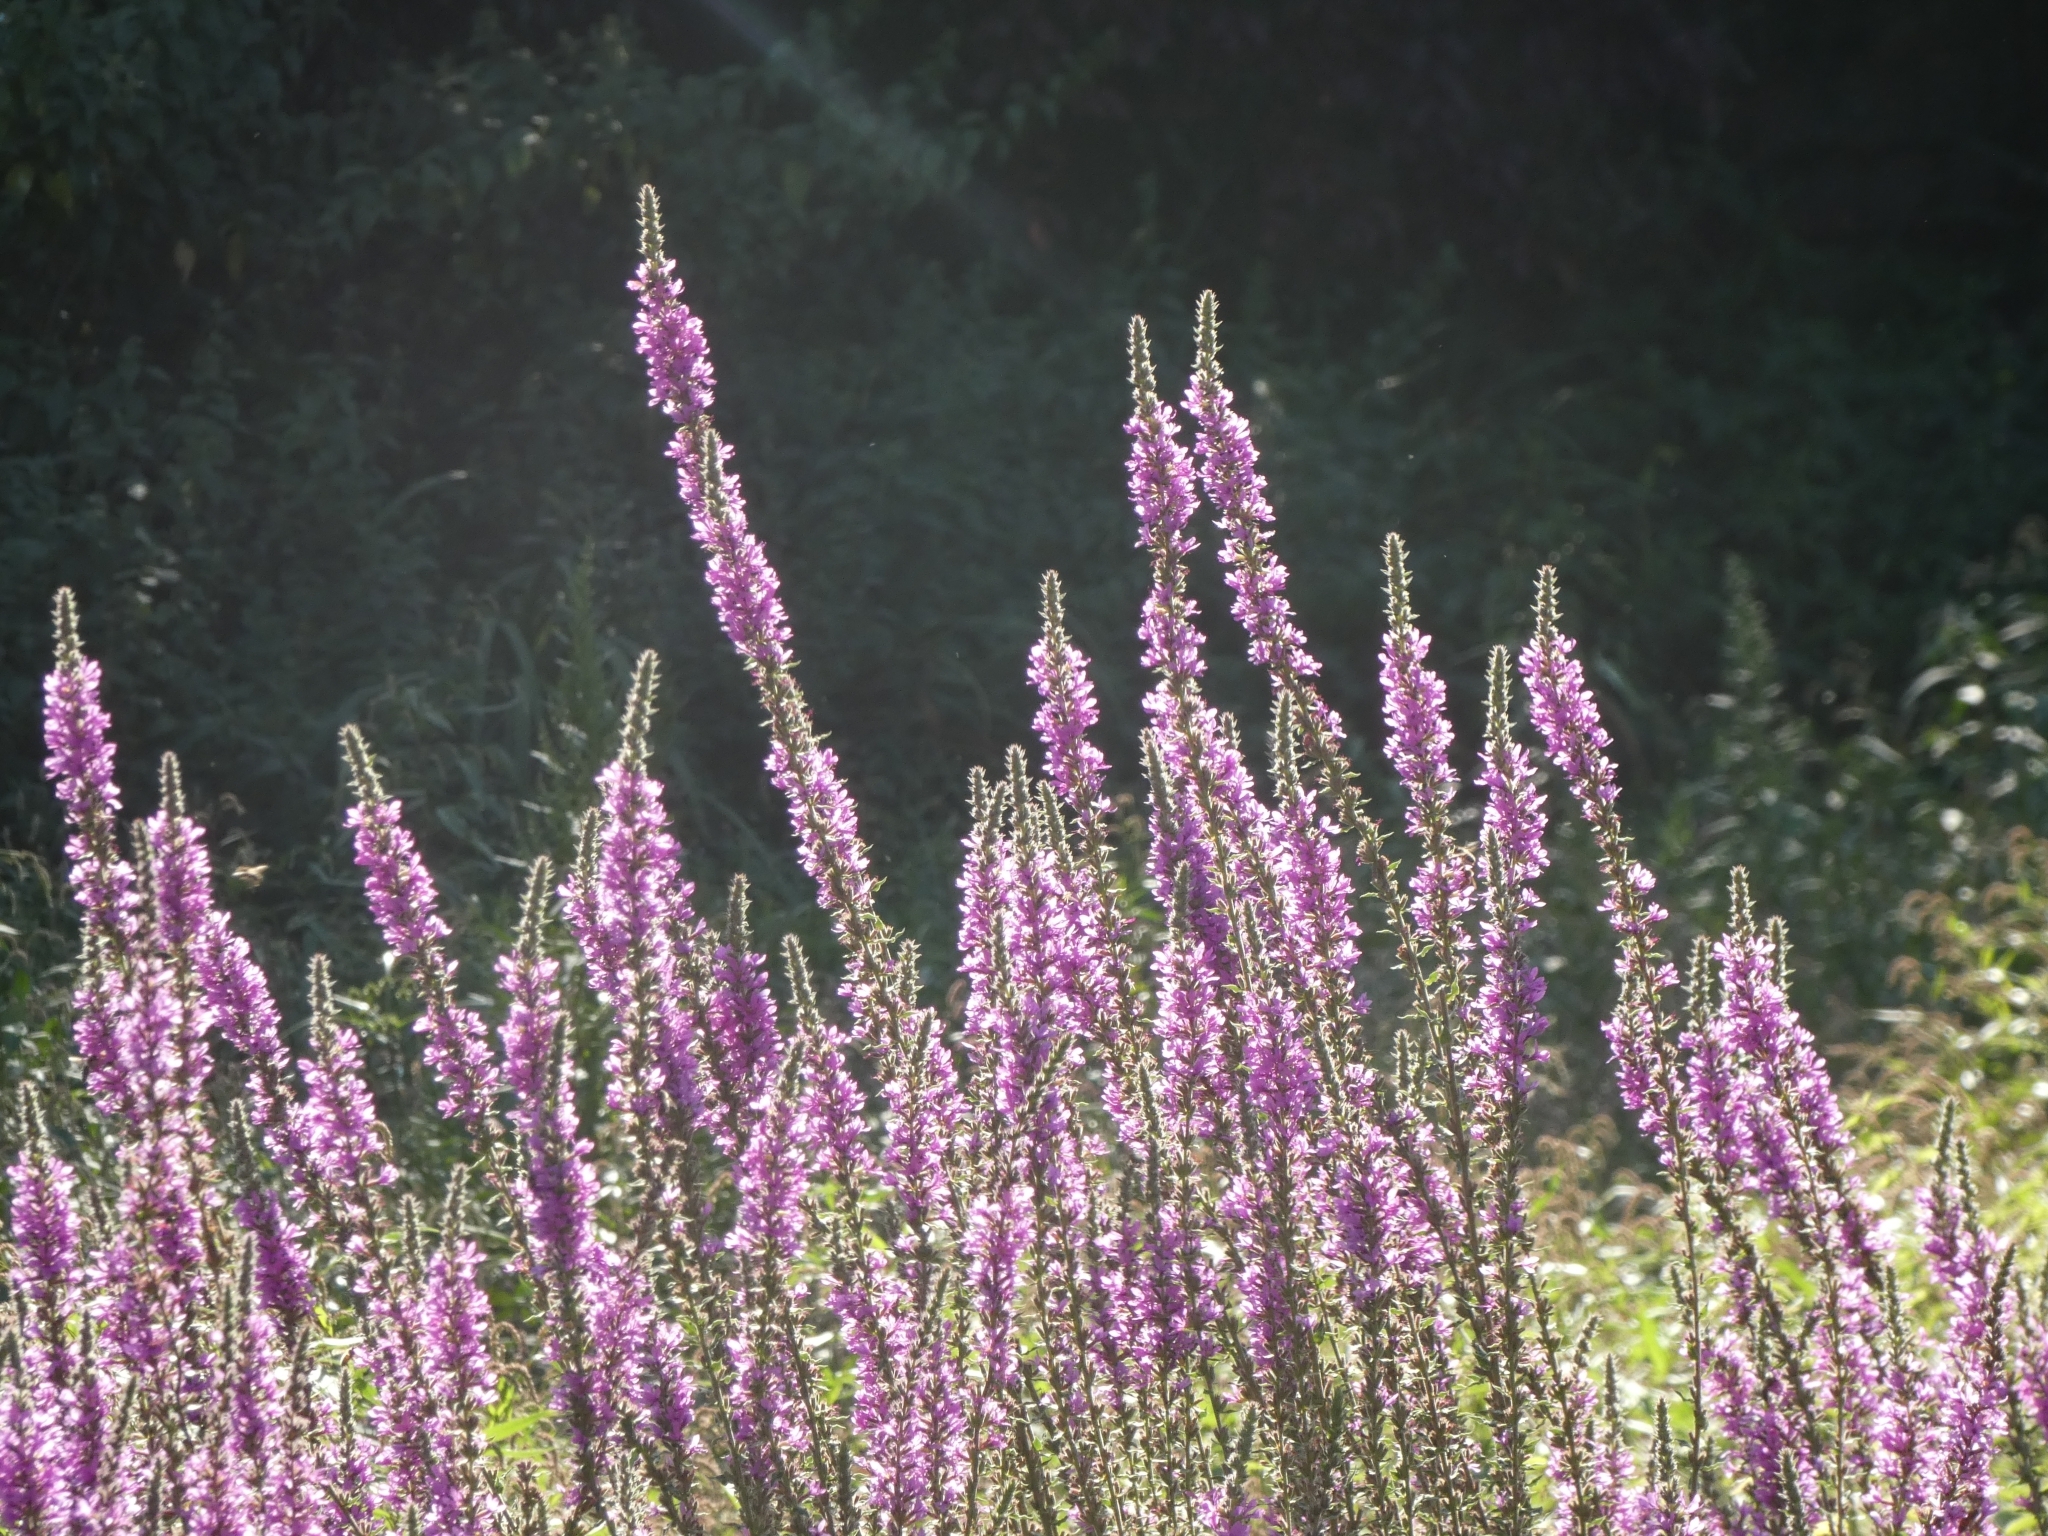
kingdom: Plantae
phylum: Tracheophyta
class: Magnoliopsida
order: Myrtales
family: Lythraceae
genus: Lythrum
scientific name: Lythrum salicaria
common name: Purple loosestrife
